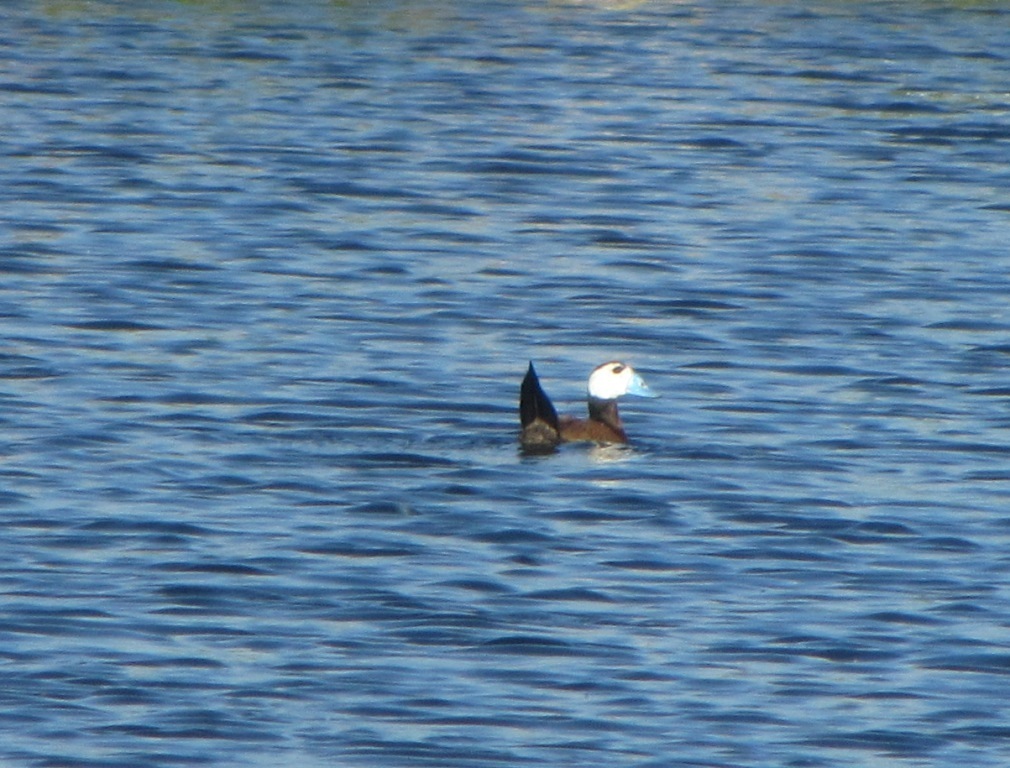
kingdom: Animalia
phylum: Chordata
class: Aves
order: Anseriformes
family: Anatidae
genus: Oxyura
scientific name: Oxyura leucocephala
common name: White-headed duck
